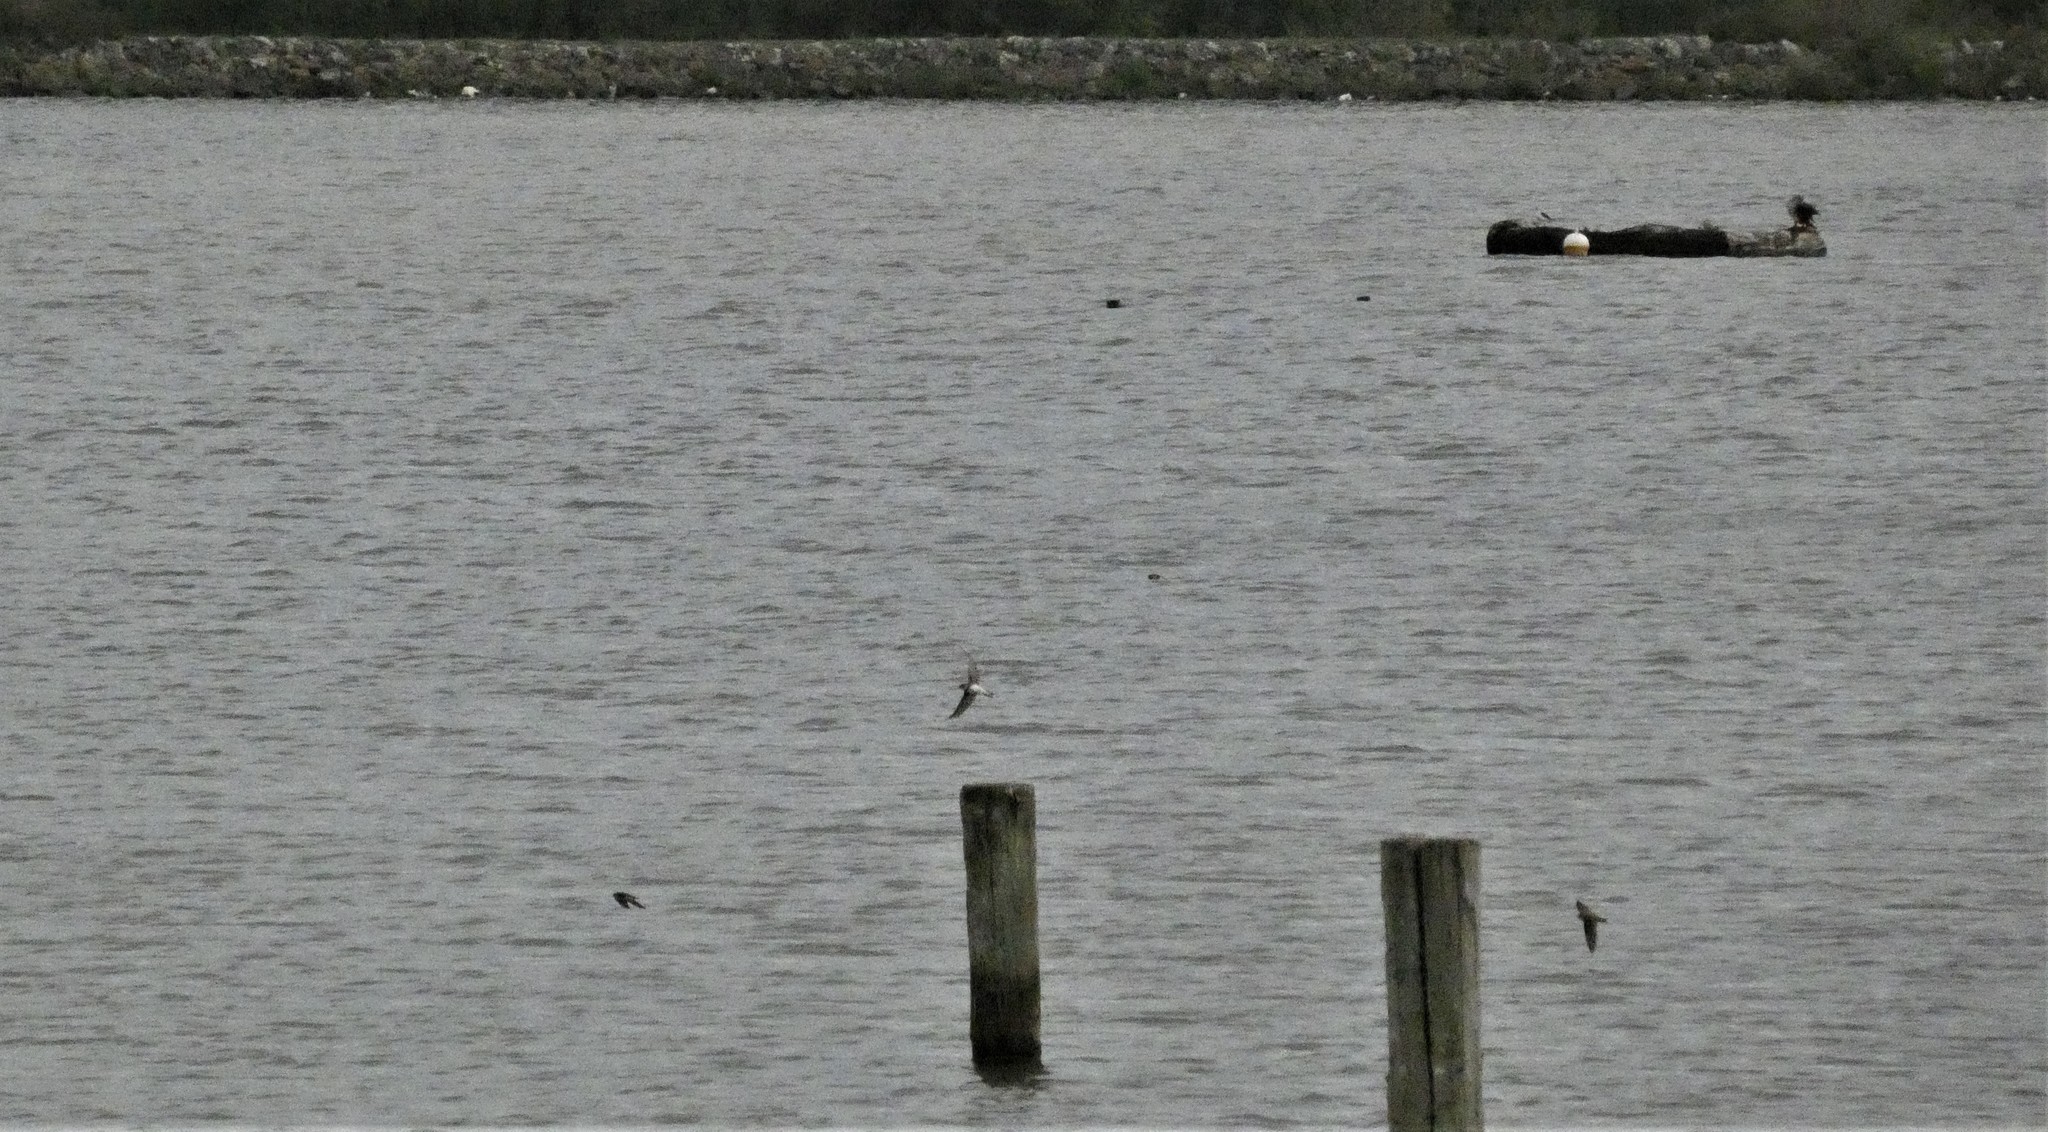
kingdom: Animalia
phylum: Chordata
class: Aves
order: Passeriformes
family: Hirundinidae
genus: Riparia
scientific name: Riparia riparia
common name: Sand martin
